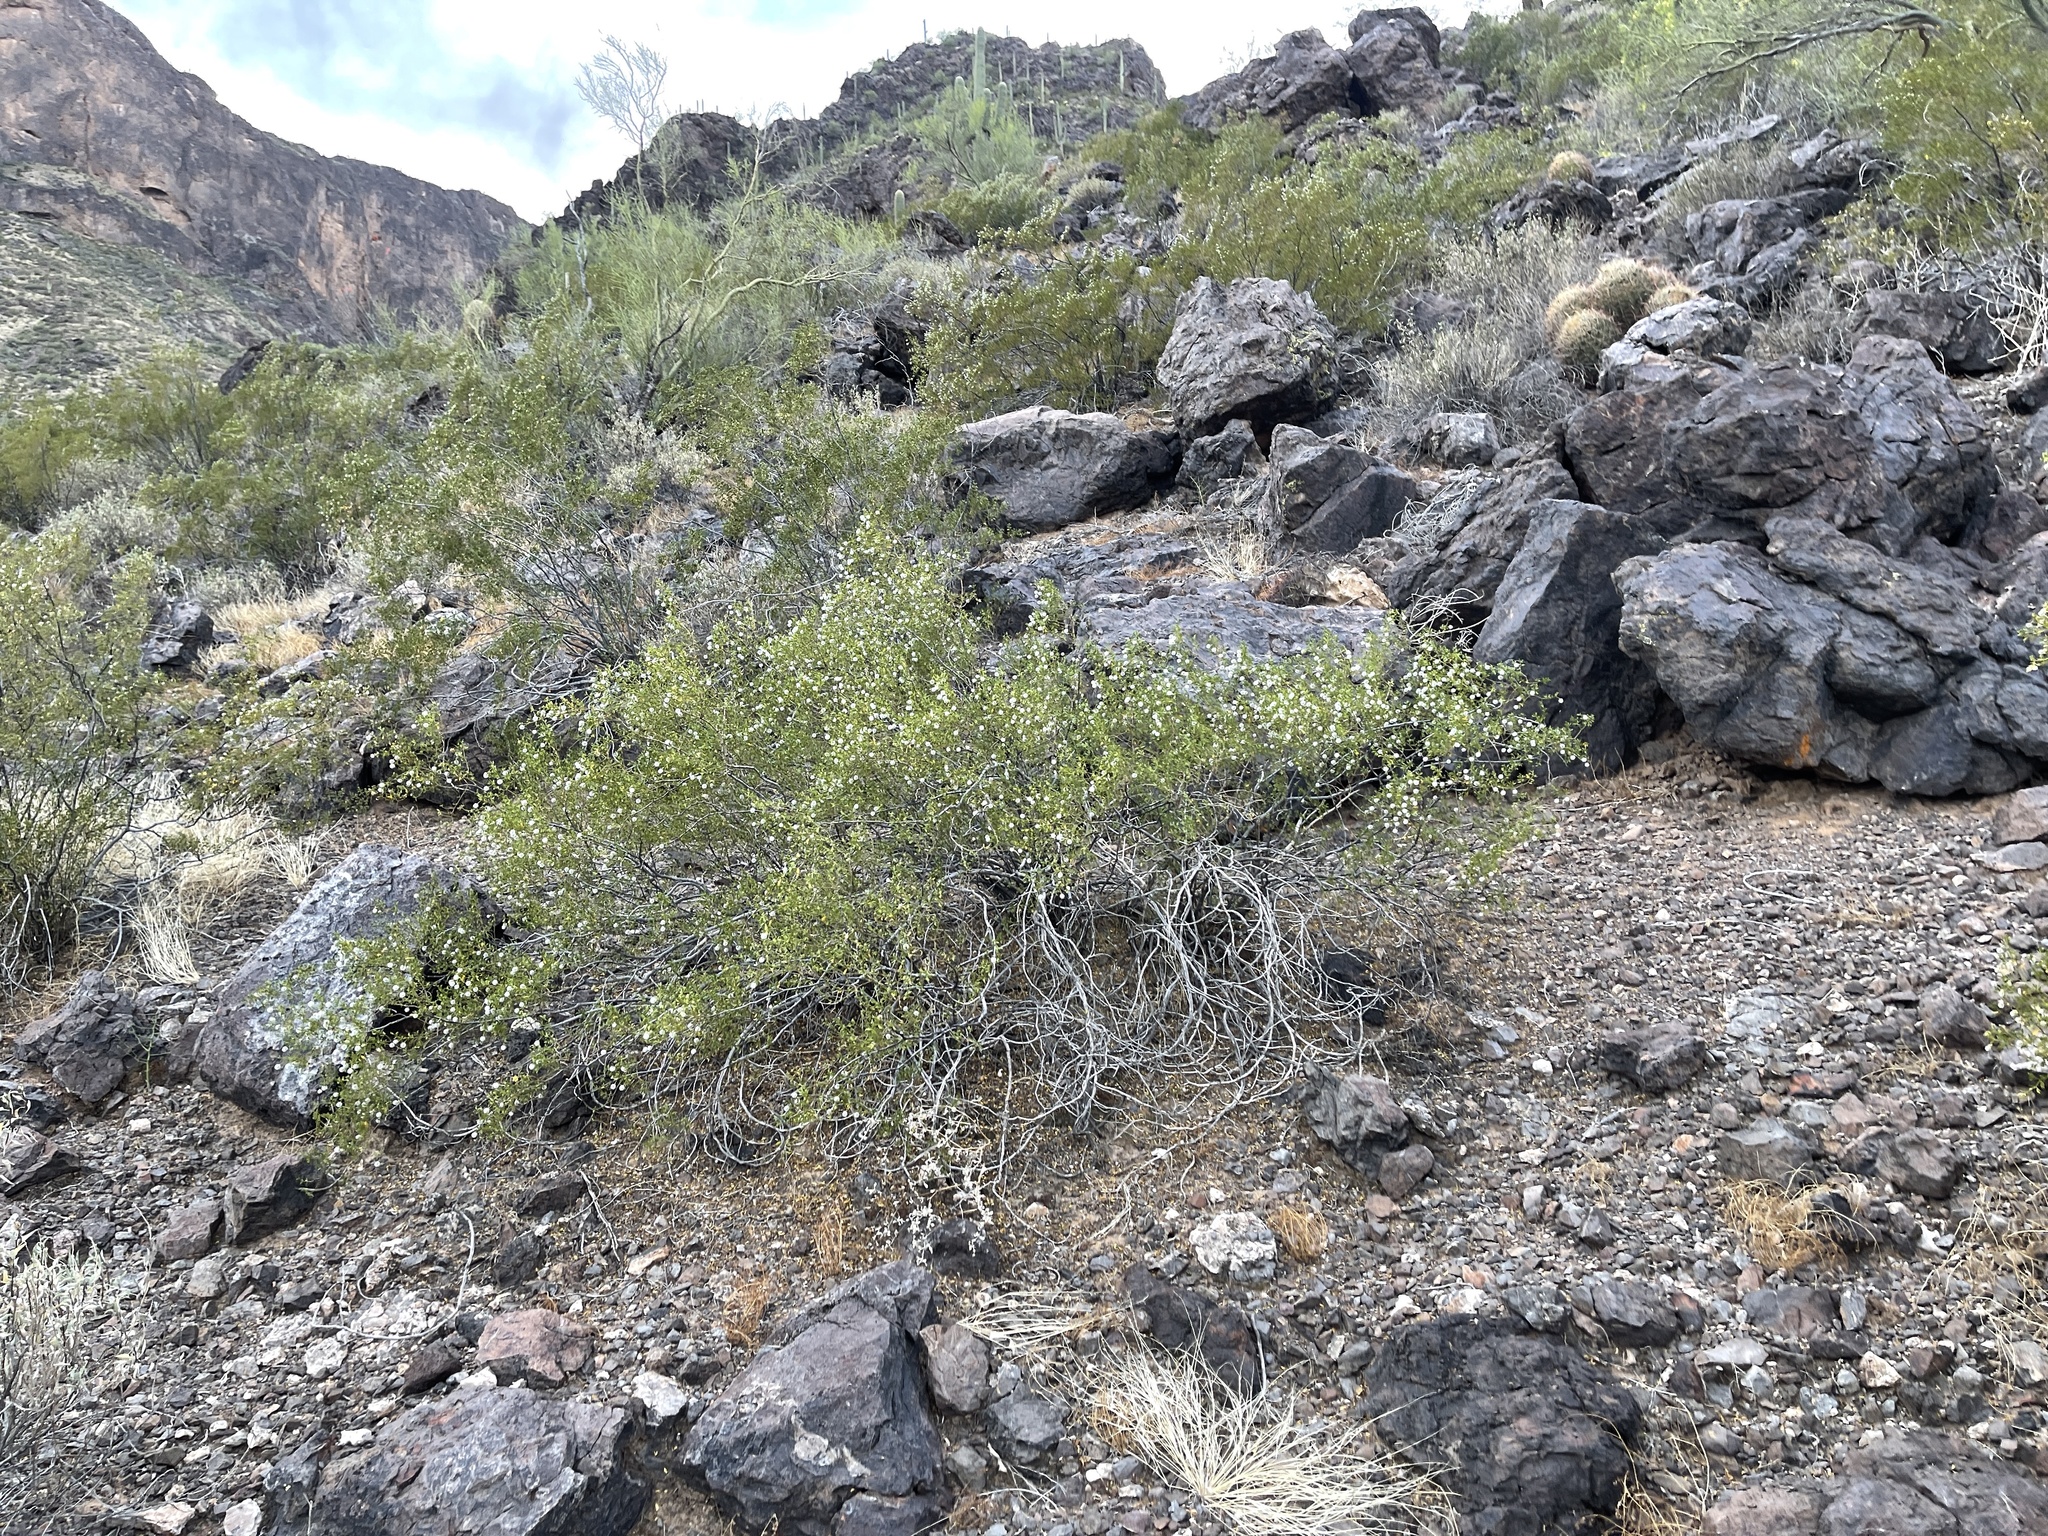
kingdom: Plantae
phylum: Tracheophyta
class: Magnoliopsida
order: Zygophyllales
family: Zygophyllaceae
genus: Larrea
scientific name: Larrea tridentata
